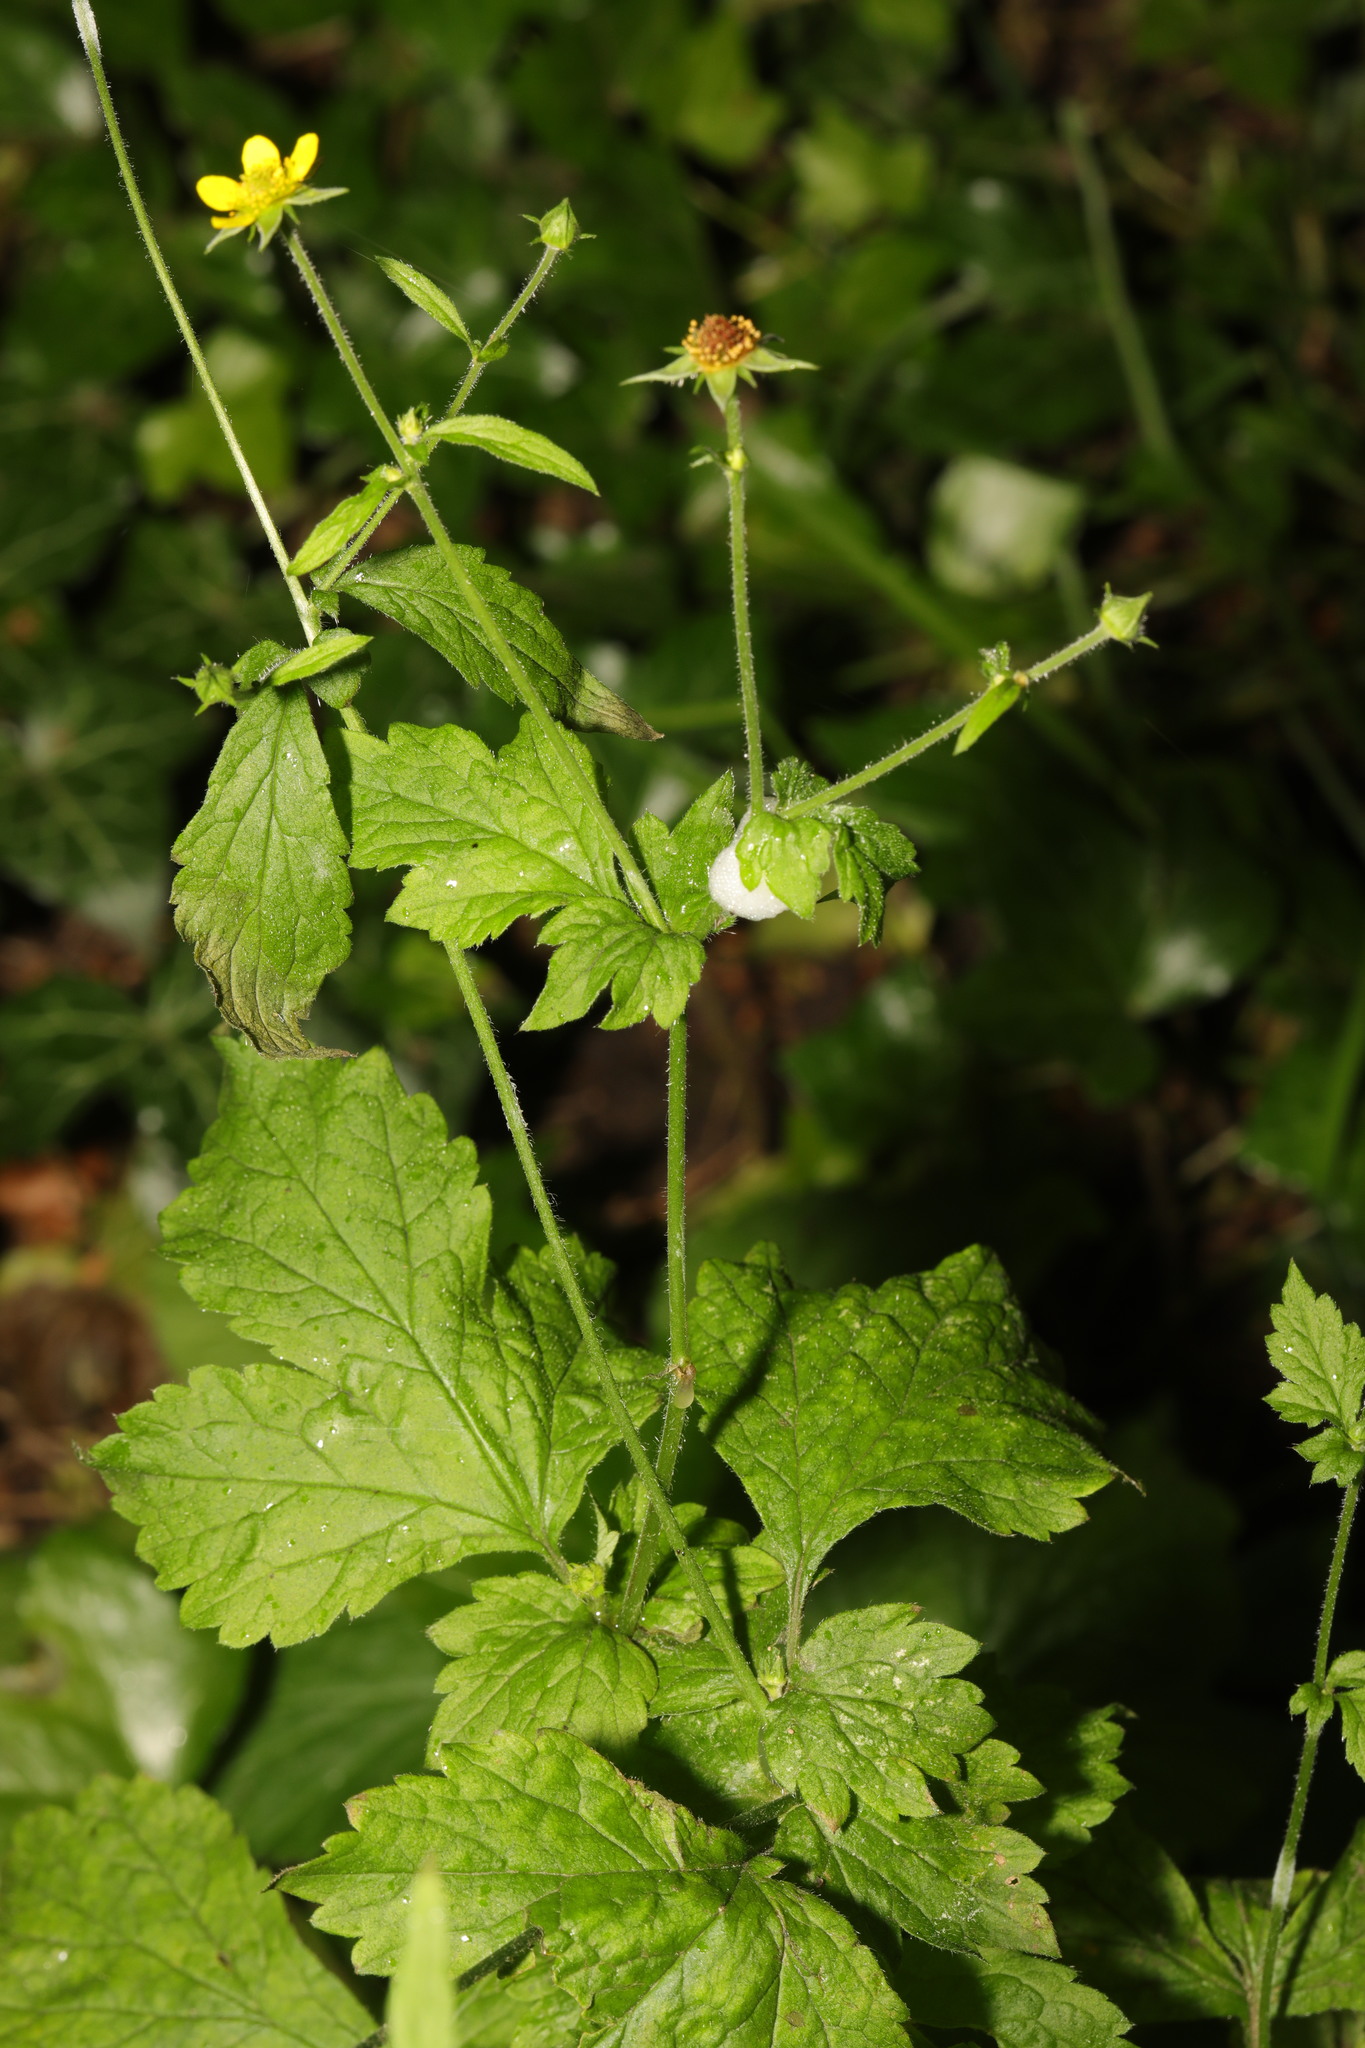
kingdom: Plantae
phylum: Tracheophyta
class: Magnoliopsida
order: Rosales
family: Rosaceae
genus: Geum
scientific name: Geum urbanum
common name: Wood avens
